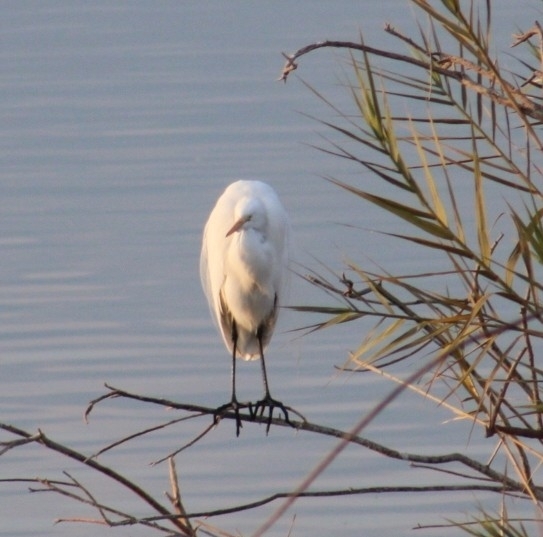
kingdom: Animalia
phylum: Chordata
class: Aves
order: Pelecaniformes
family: Ardeidae
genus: Ardea
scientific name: Ardea alba
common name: Great egret
